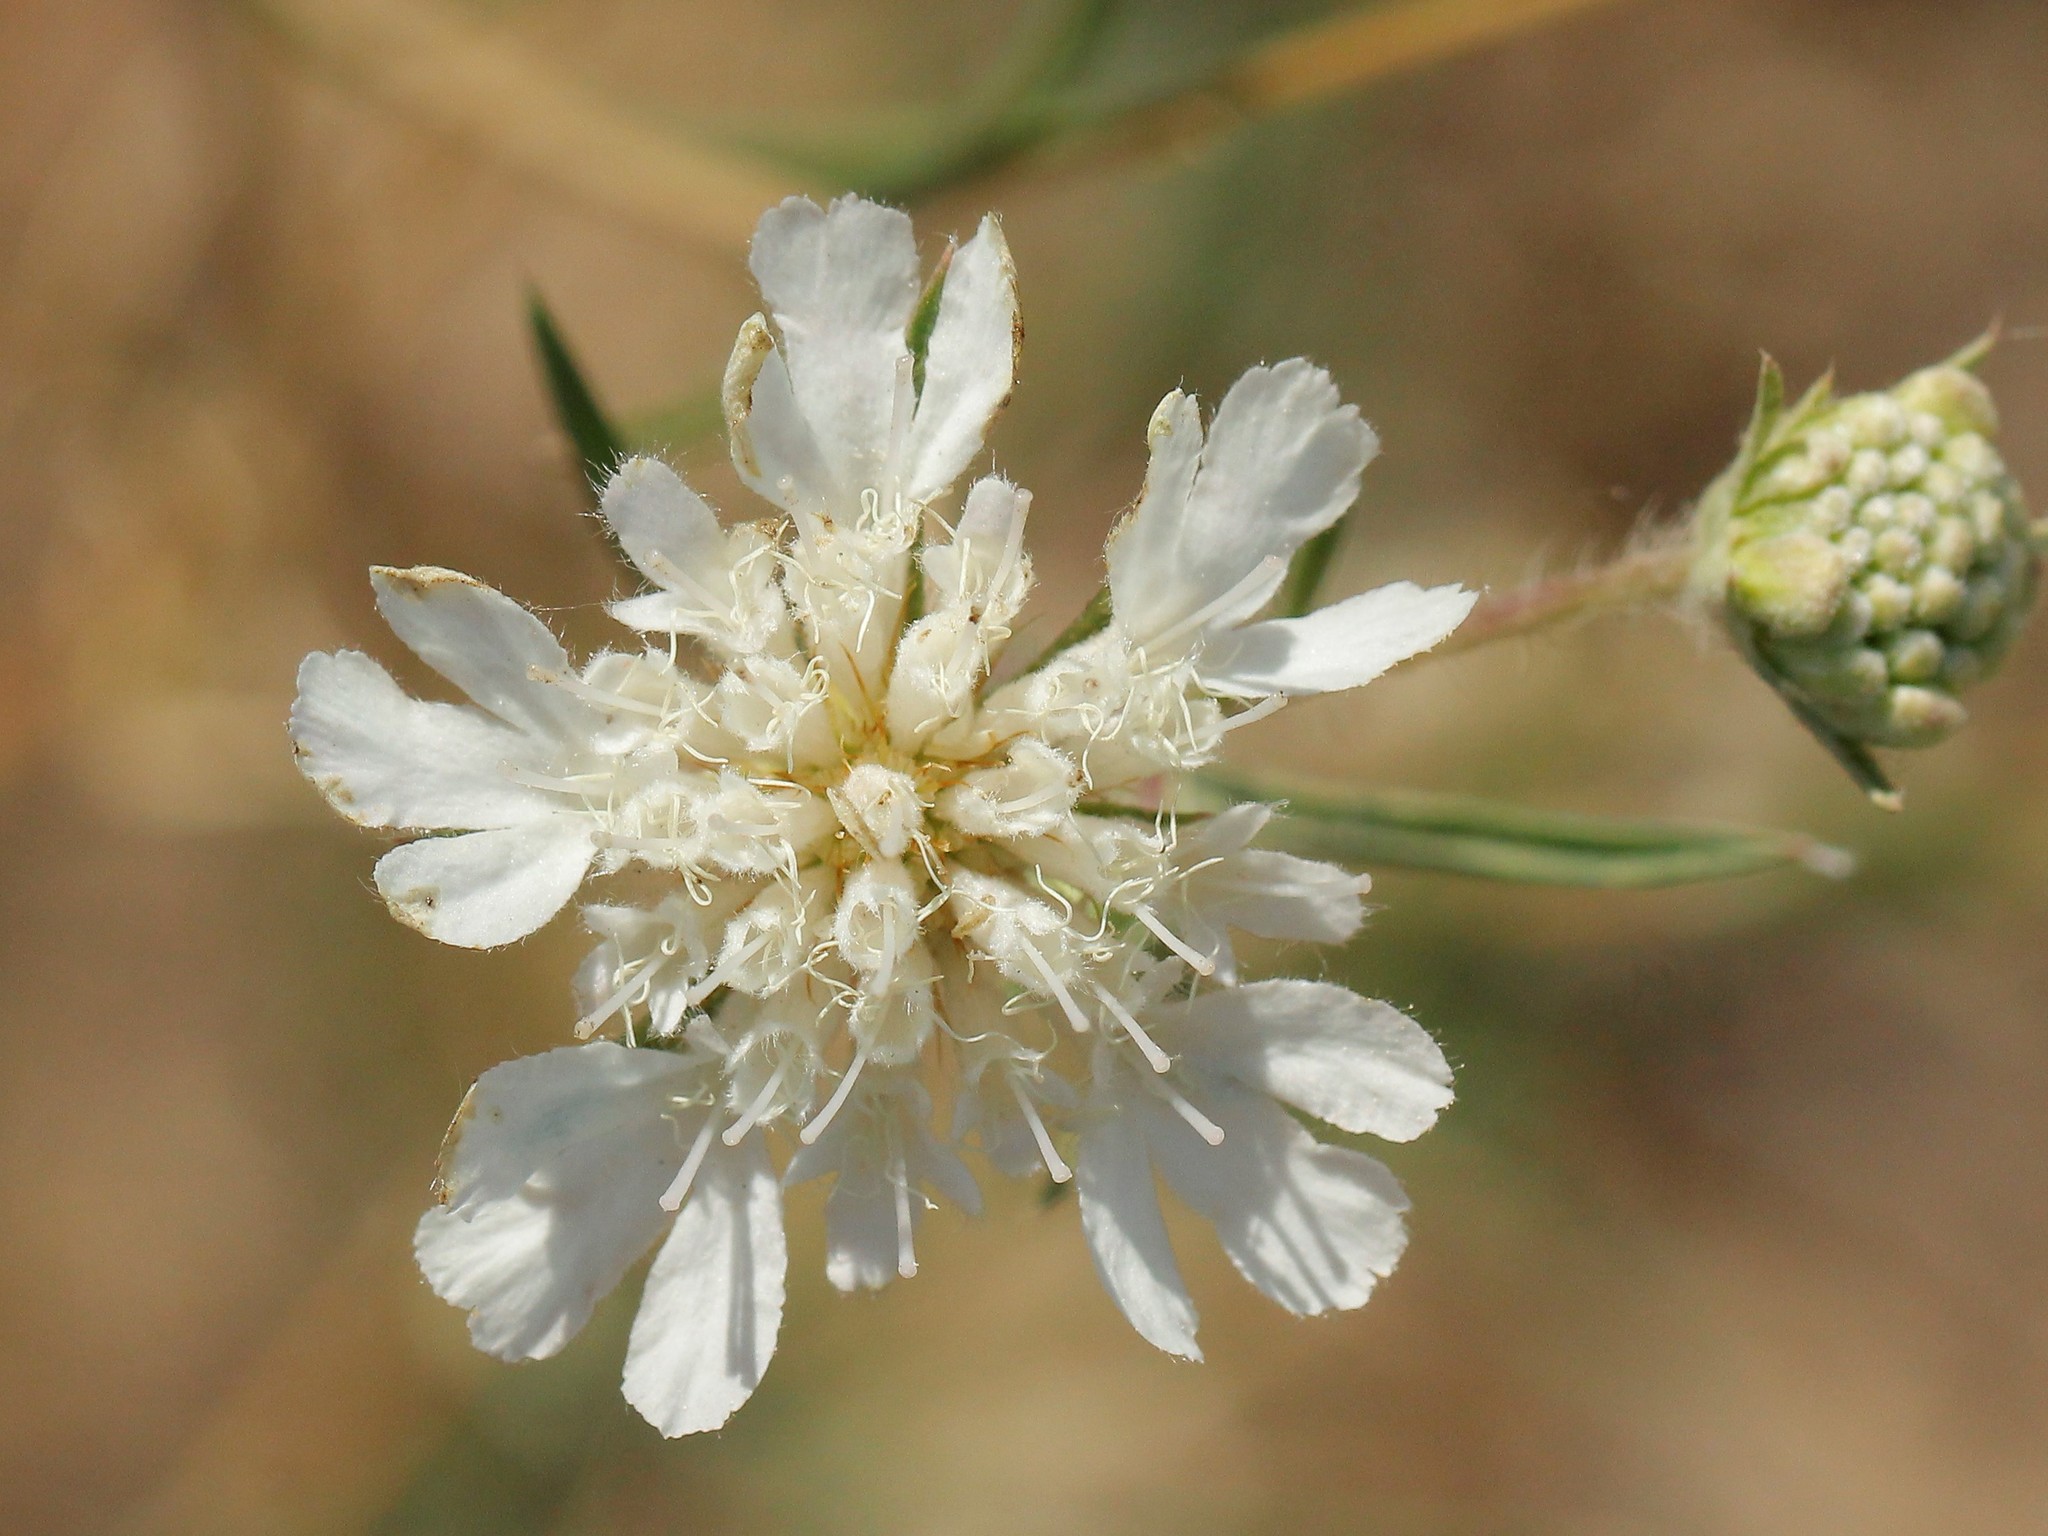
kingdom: Plantae
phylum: Tracheophyta
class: Magnoliopsida
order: Dipsacales
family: Caprifoliaceae
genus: Lomelosia
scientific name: Lomelosia argentea
